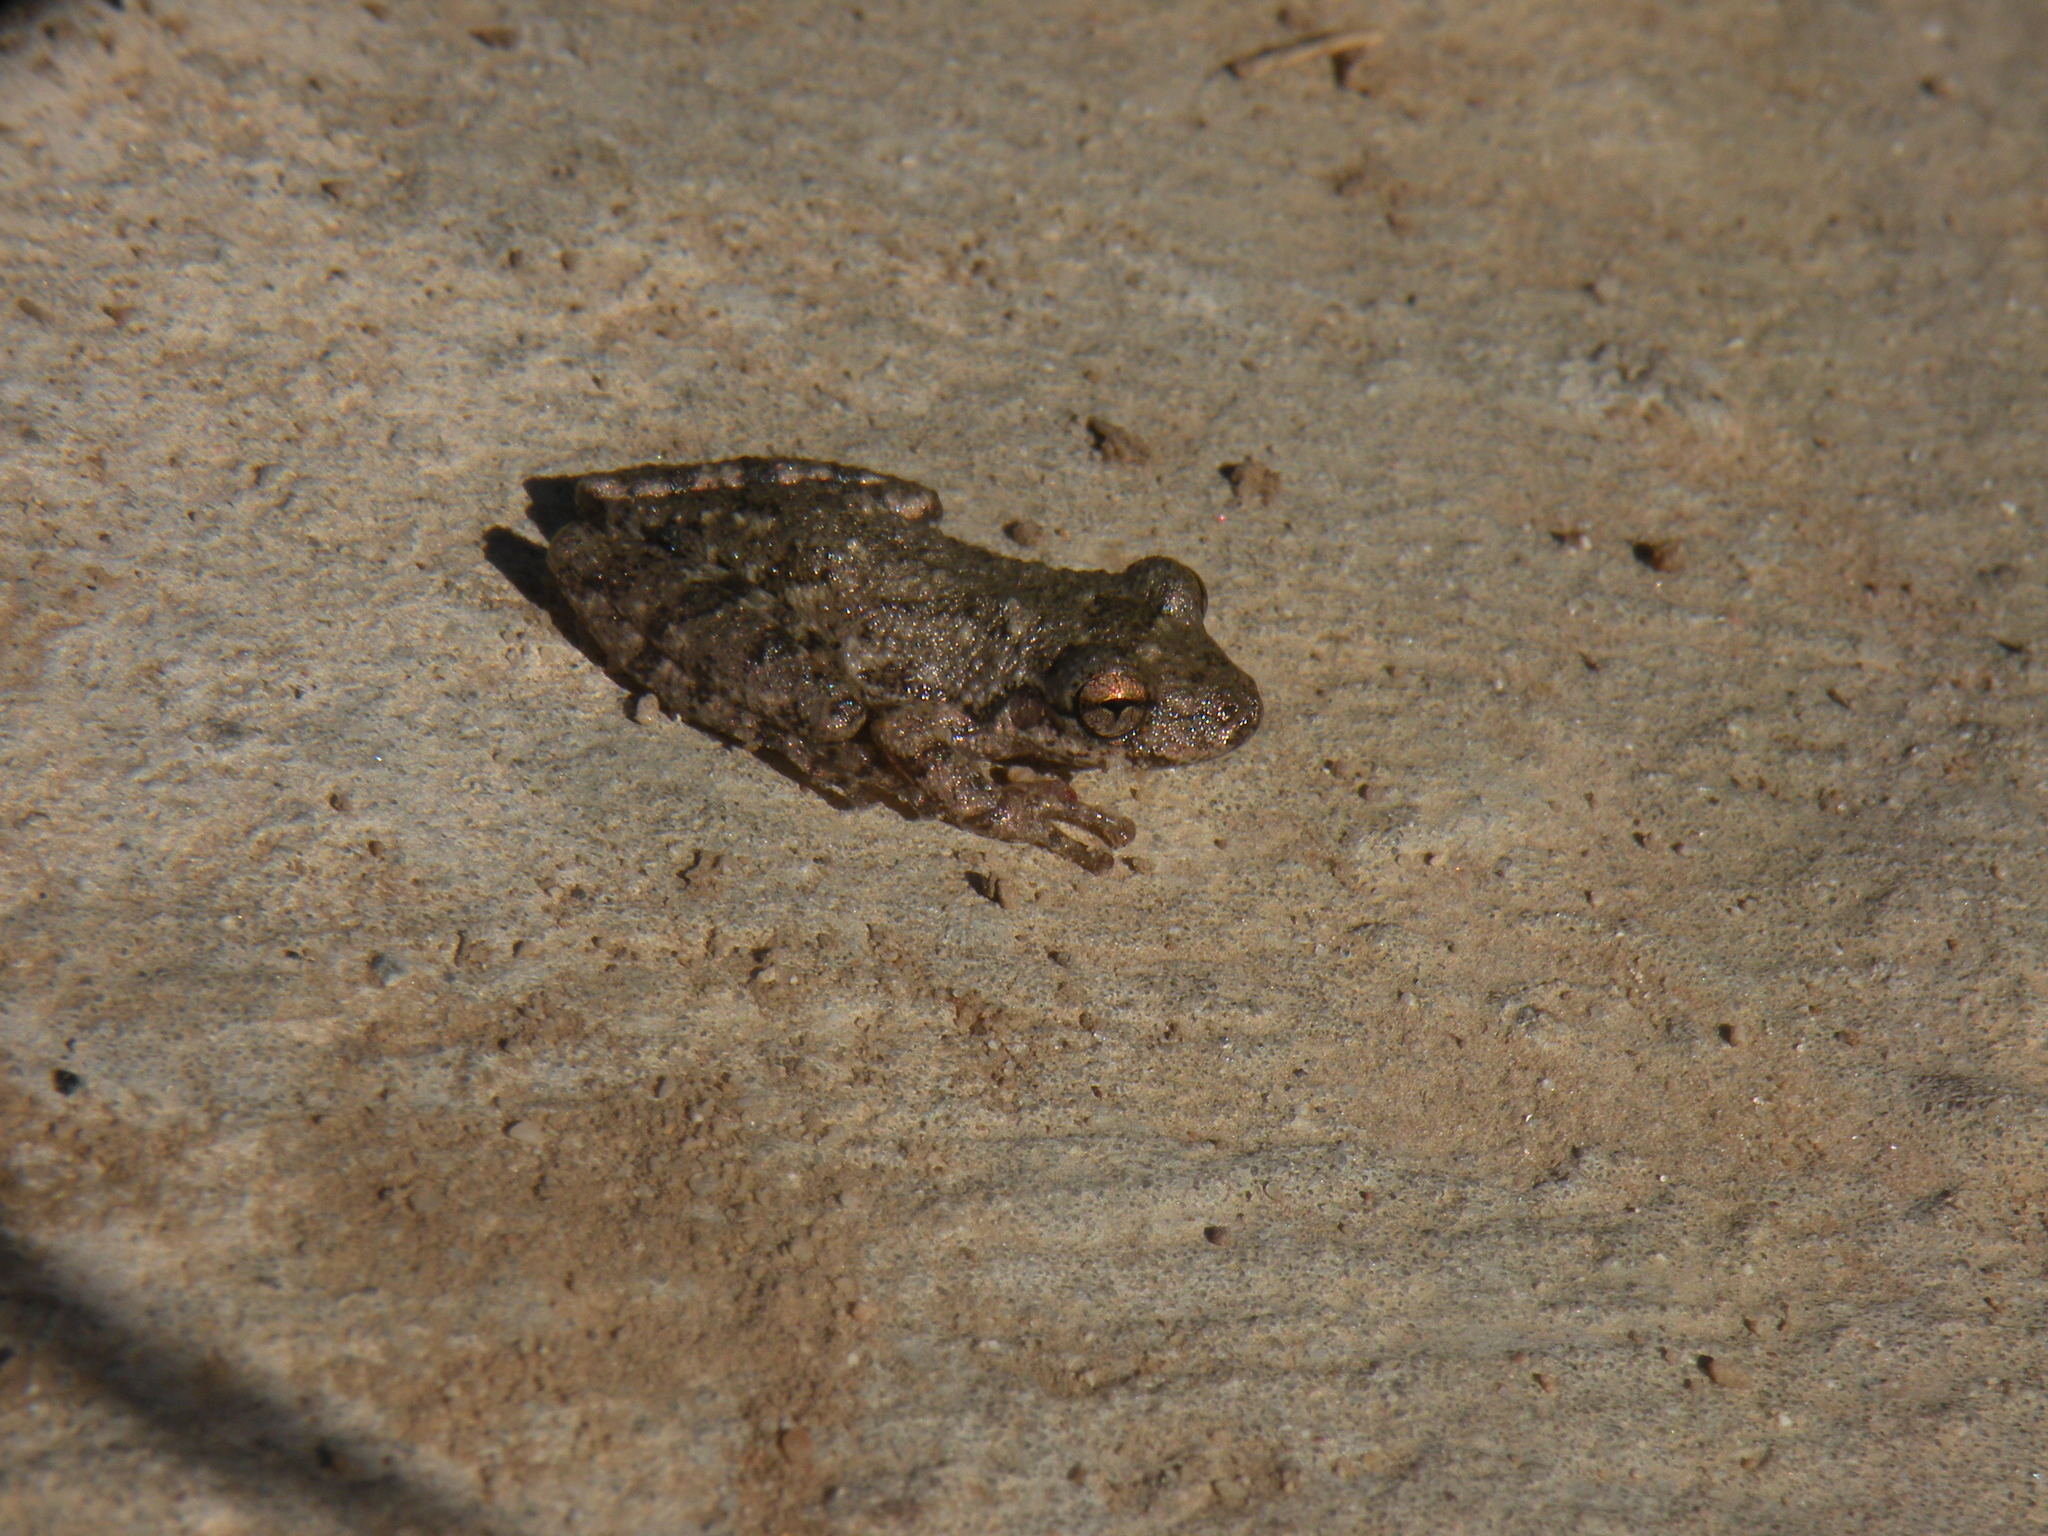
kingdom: Animalia
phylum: Chordata
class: Amphibia
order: Anura
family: Hylidae
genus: Scinax
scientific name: Scinax granulatus
